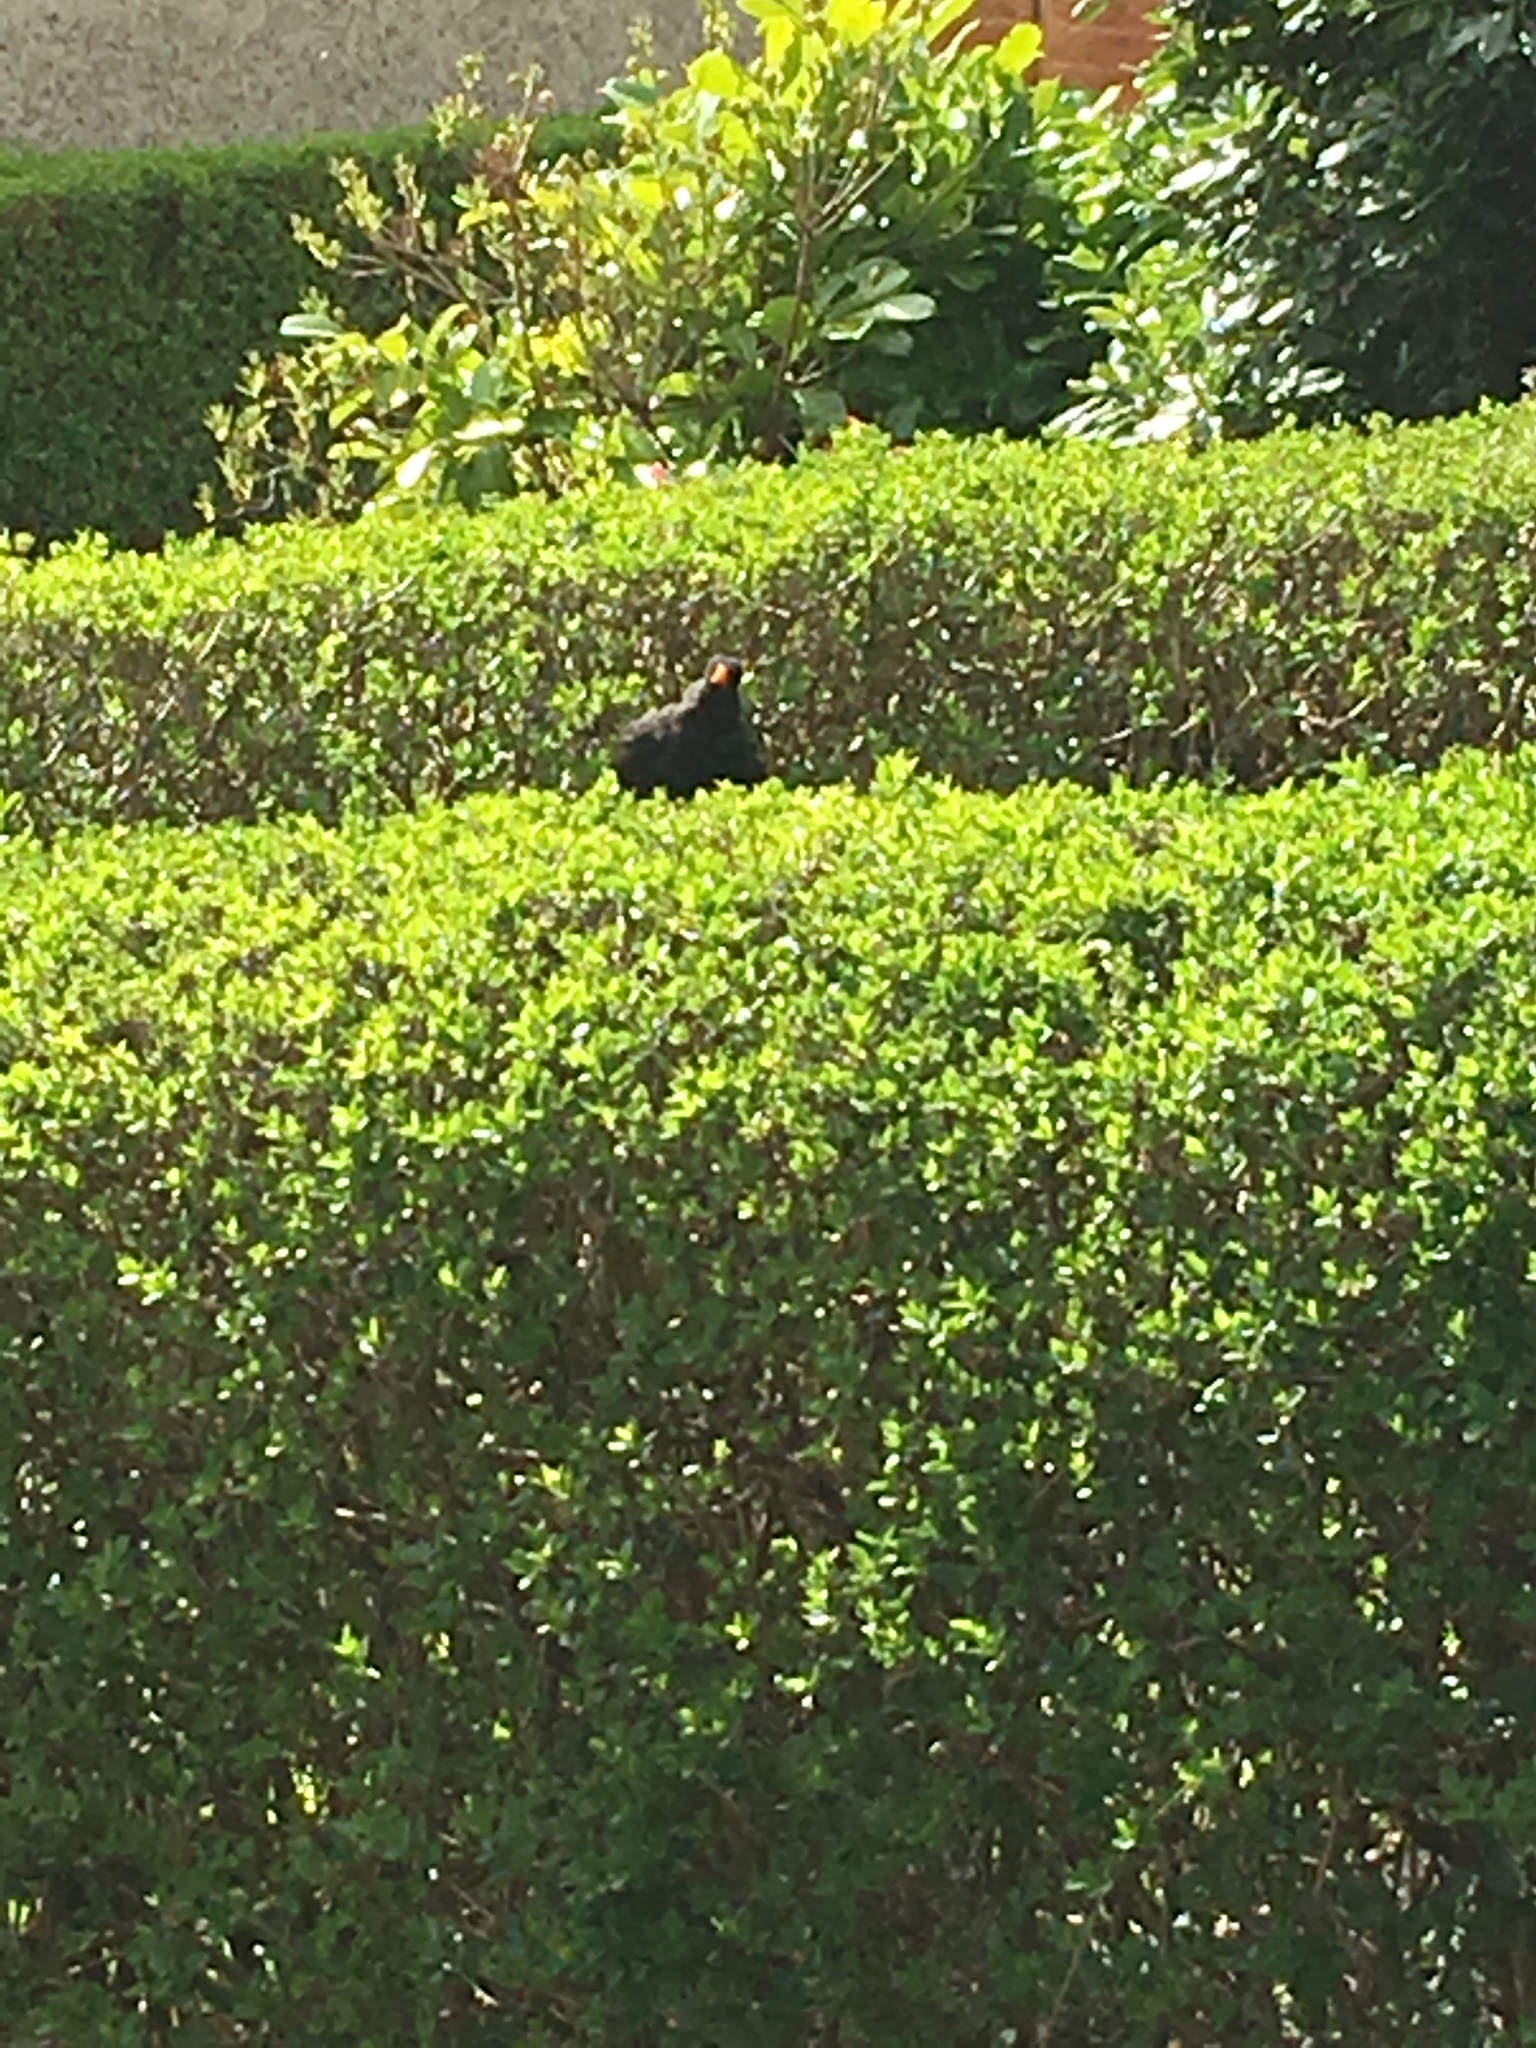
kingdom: Animalia
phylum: Chordata
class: Aves
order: Passeriformes
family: Turdidae
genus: Turdus
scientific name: Turdus merula
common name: Common blackbird
